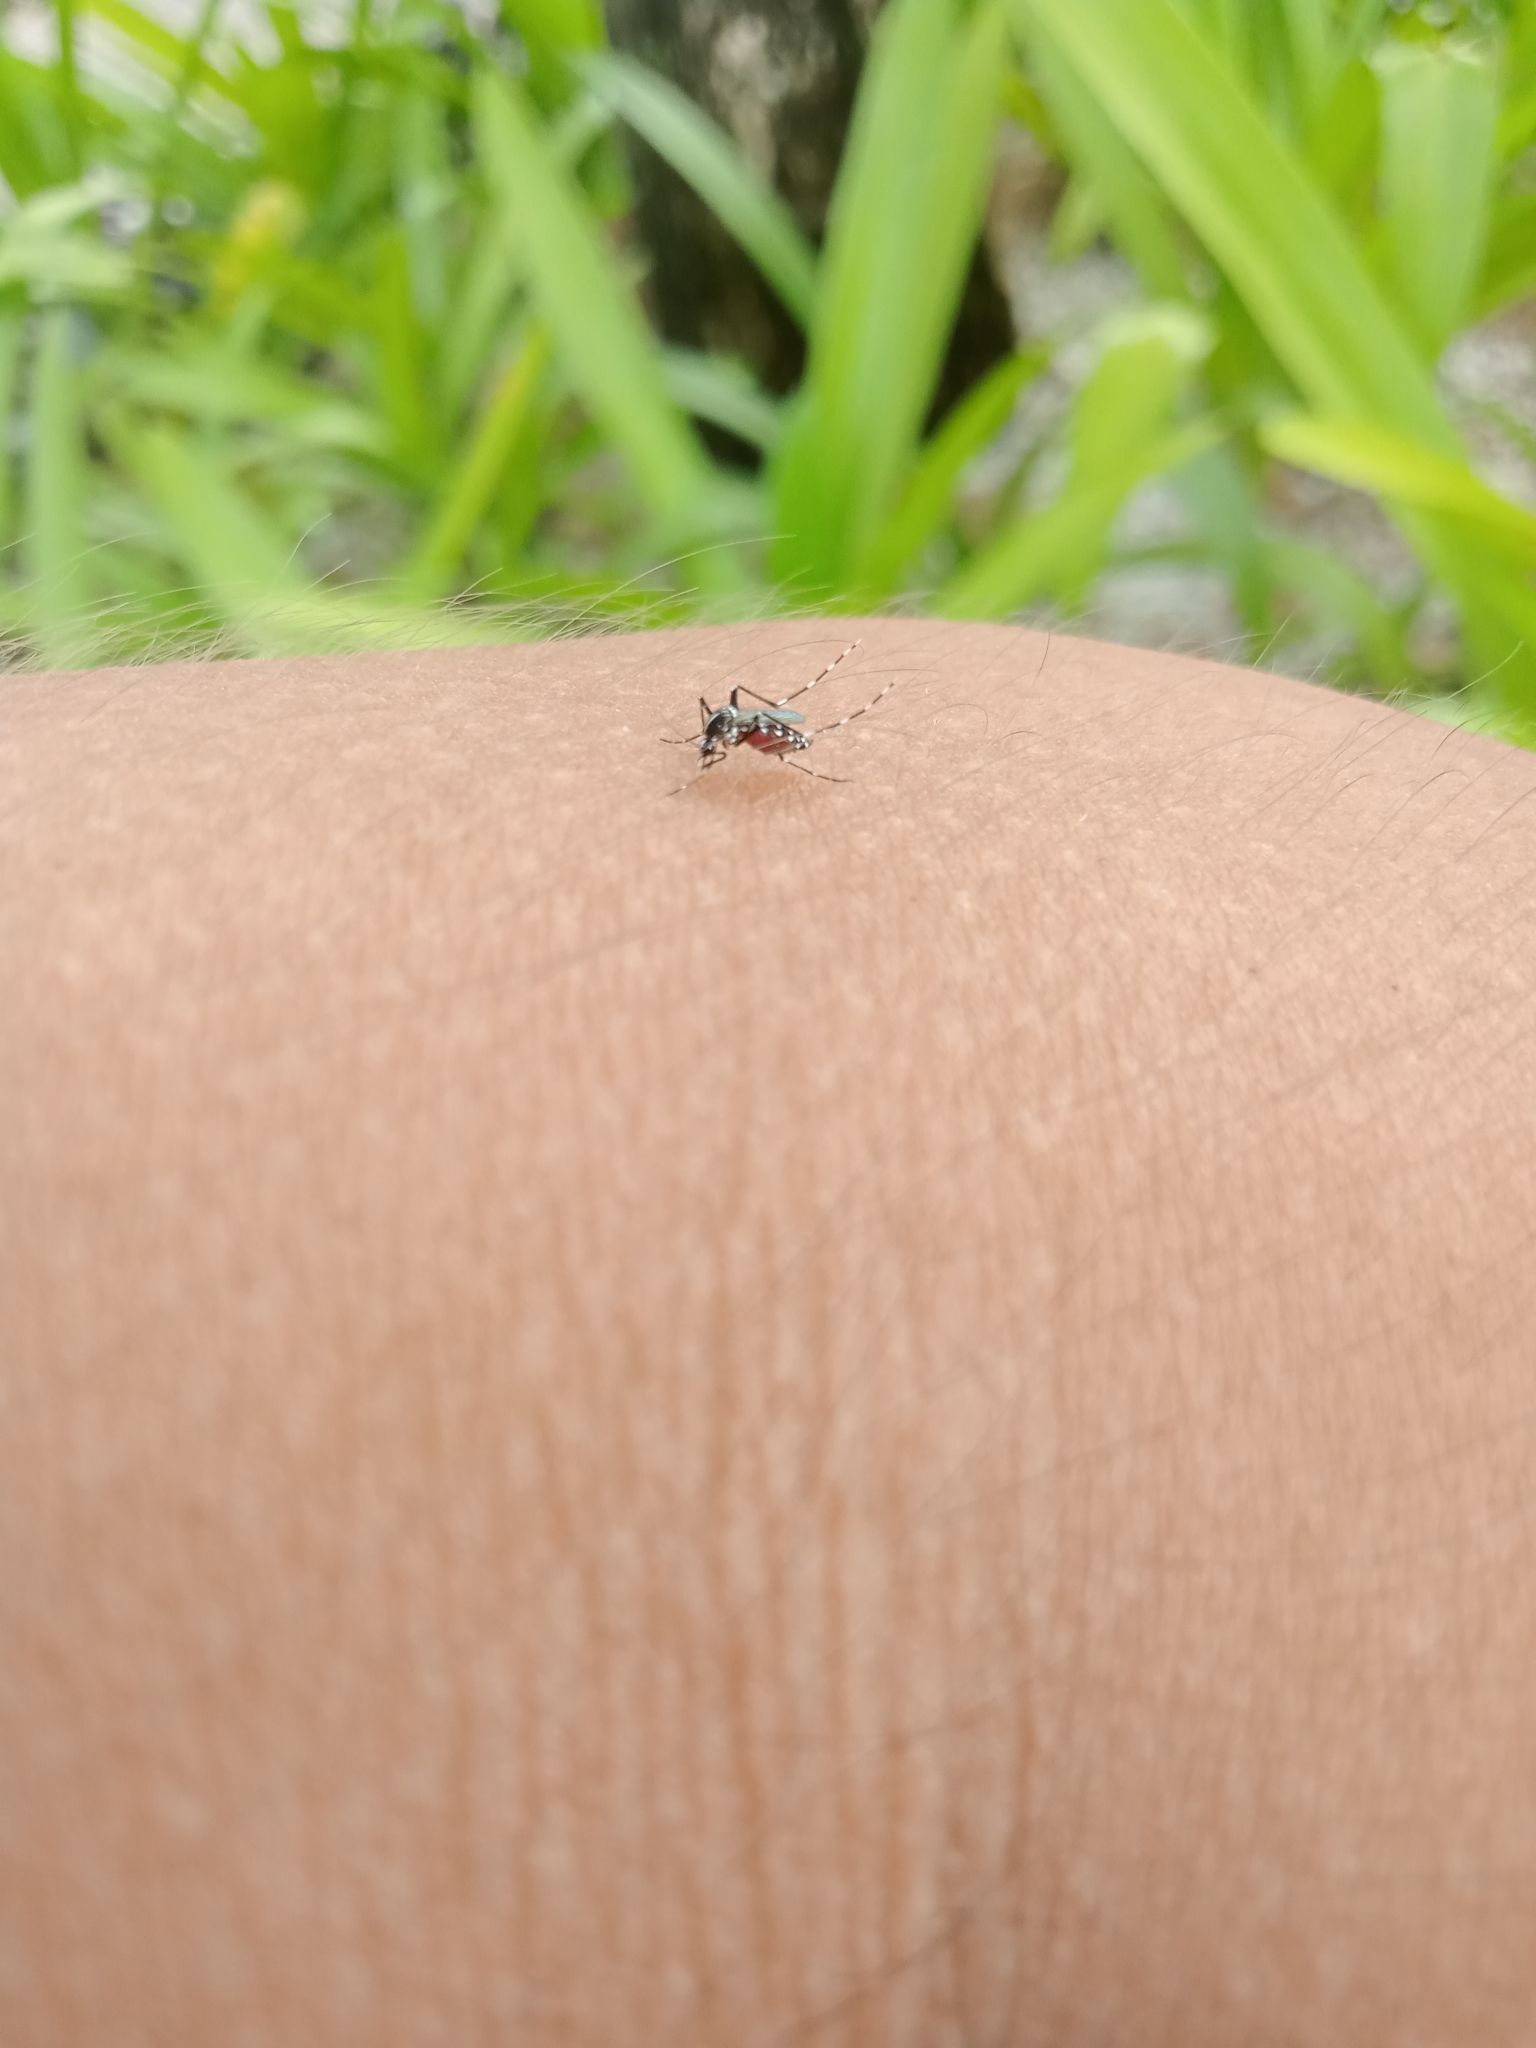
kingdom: Animalia
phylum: Arthropoda
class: Insecta
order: Diptera
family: Culicidae
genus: Aedes
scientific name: Aedes albopictus
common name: Tiger mosquito
